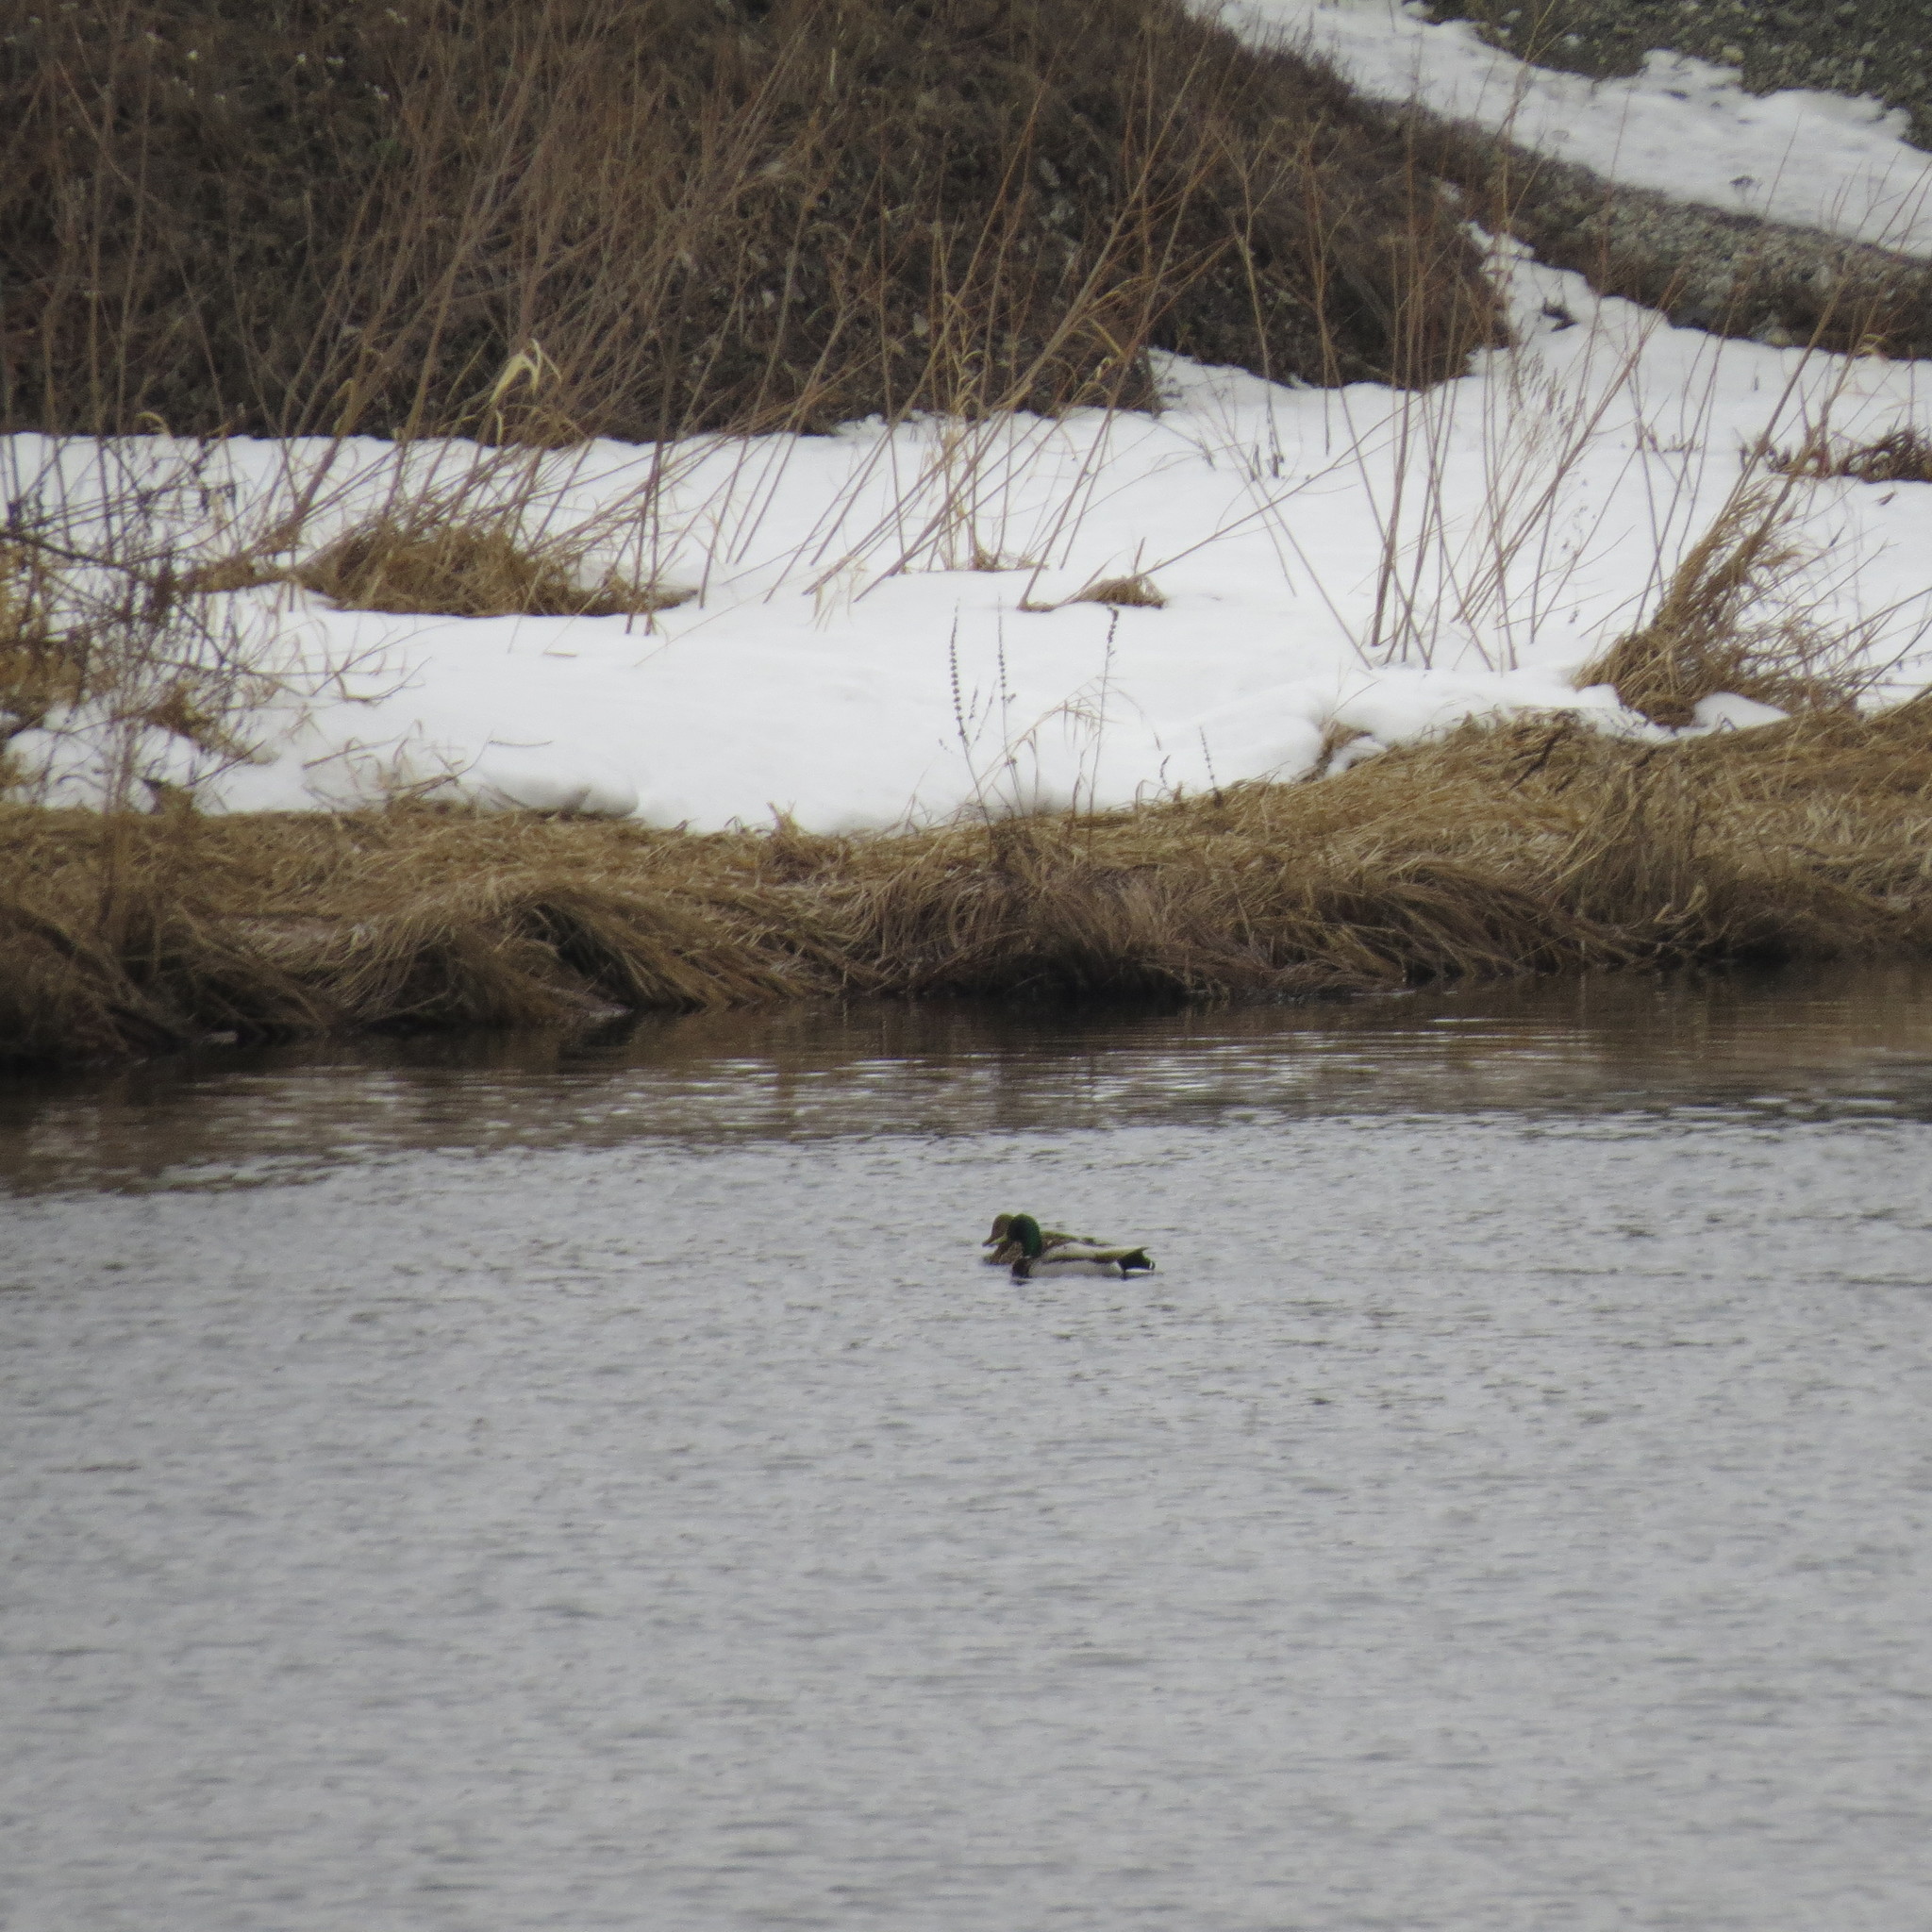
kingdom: Animalia
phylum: Chordata
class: Aves
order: Anseriformes
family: Anatidae
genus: Anas
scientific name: Anas platyrhynchos
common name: Mallard
